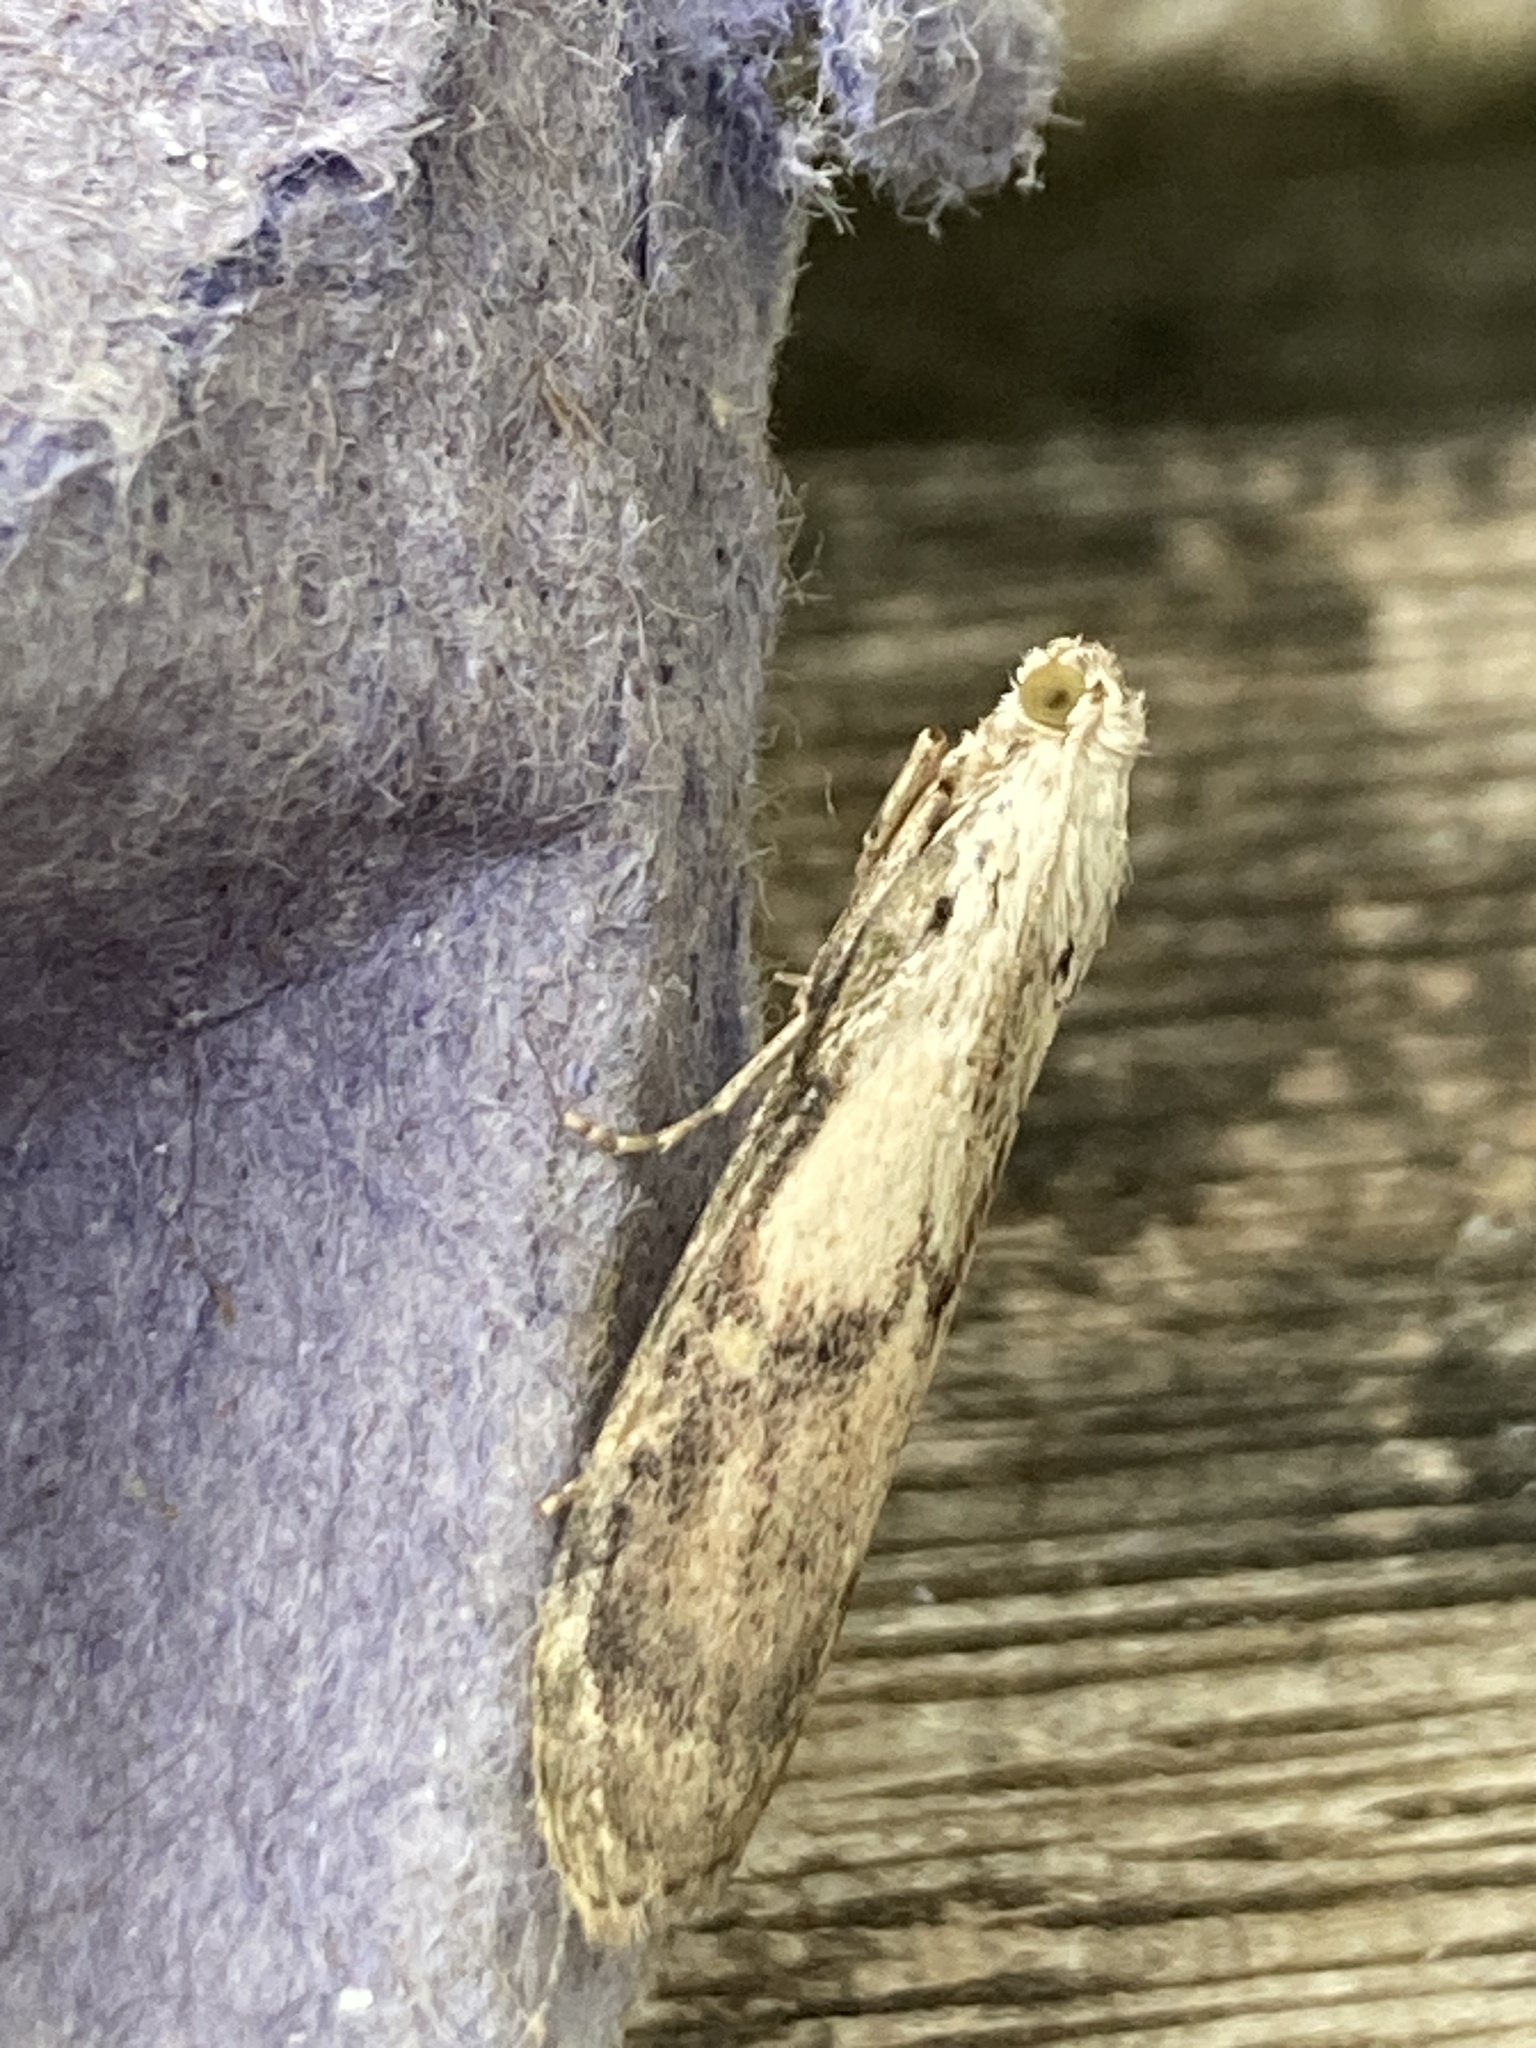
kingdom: Animalia
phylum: Arthropoda
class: Insecta
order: Lepidoptera
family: Pyralidae
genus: Aphomia
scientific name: Aphomia sociella
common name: Bee moth
